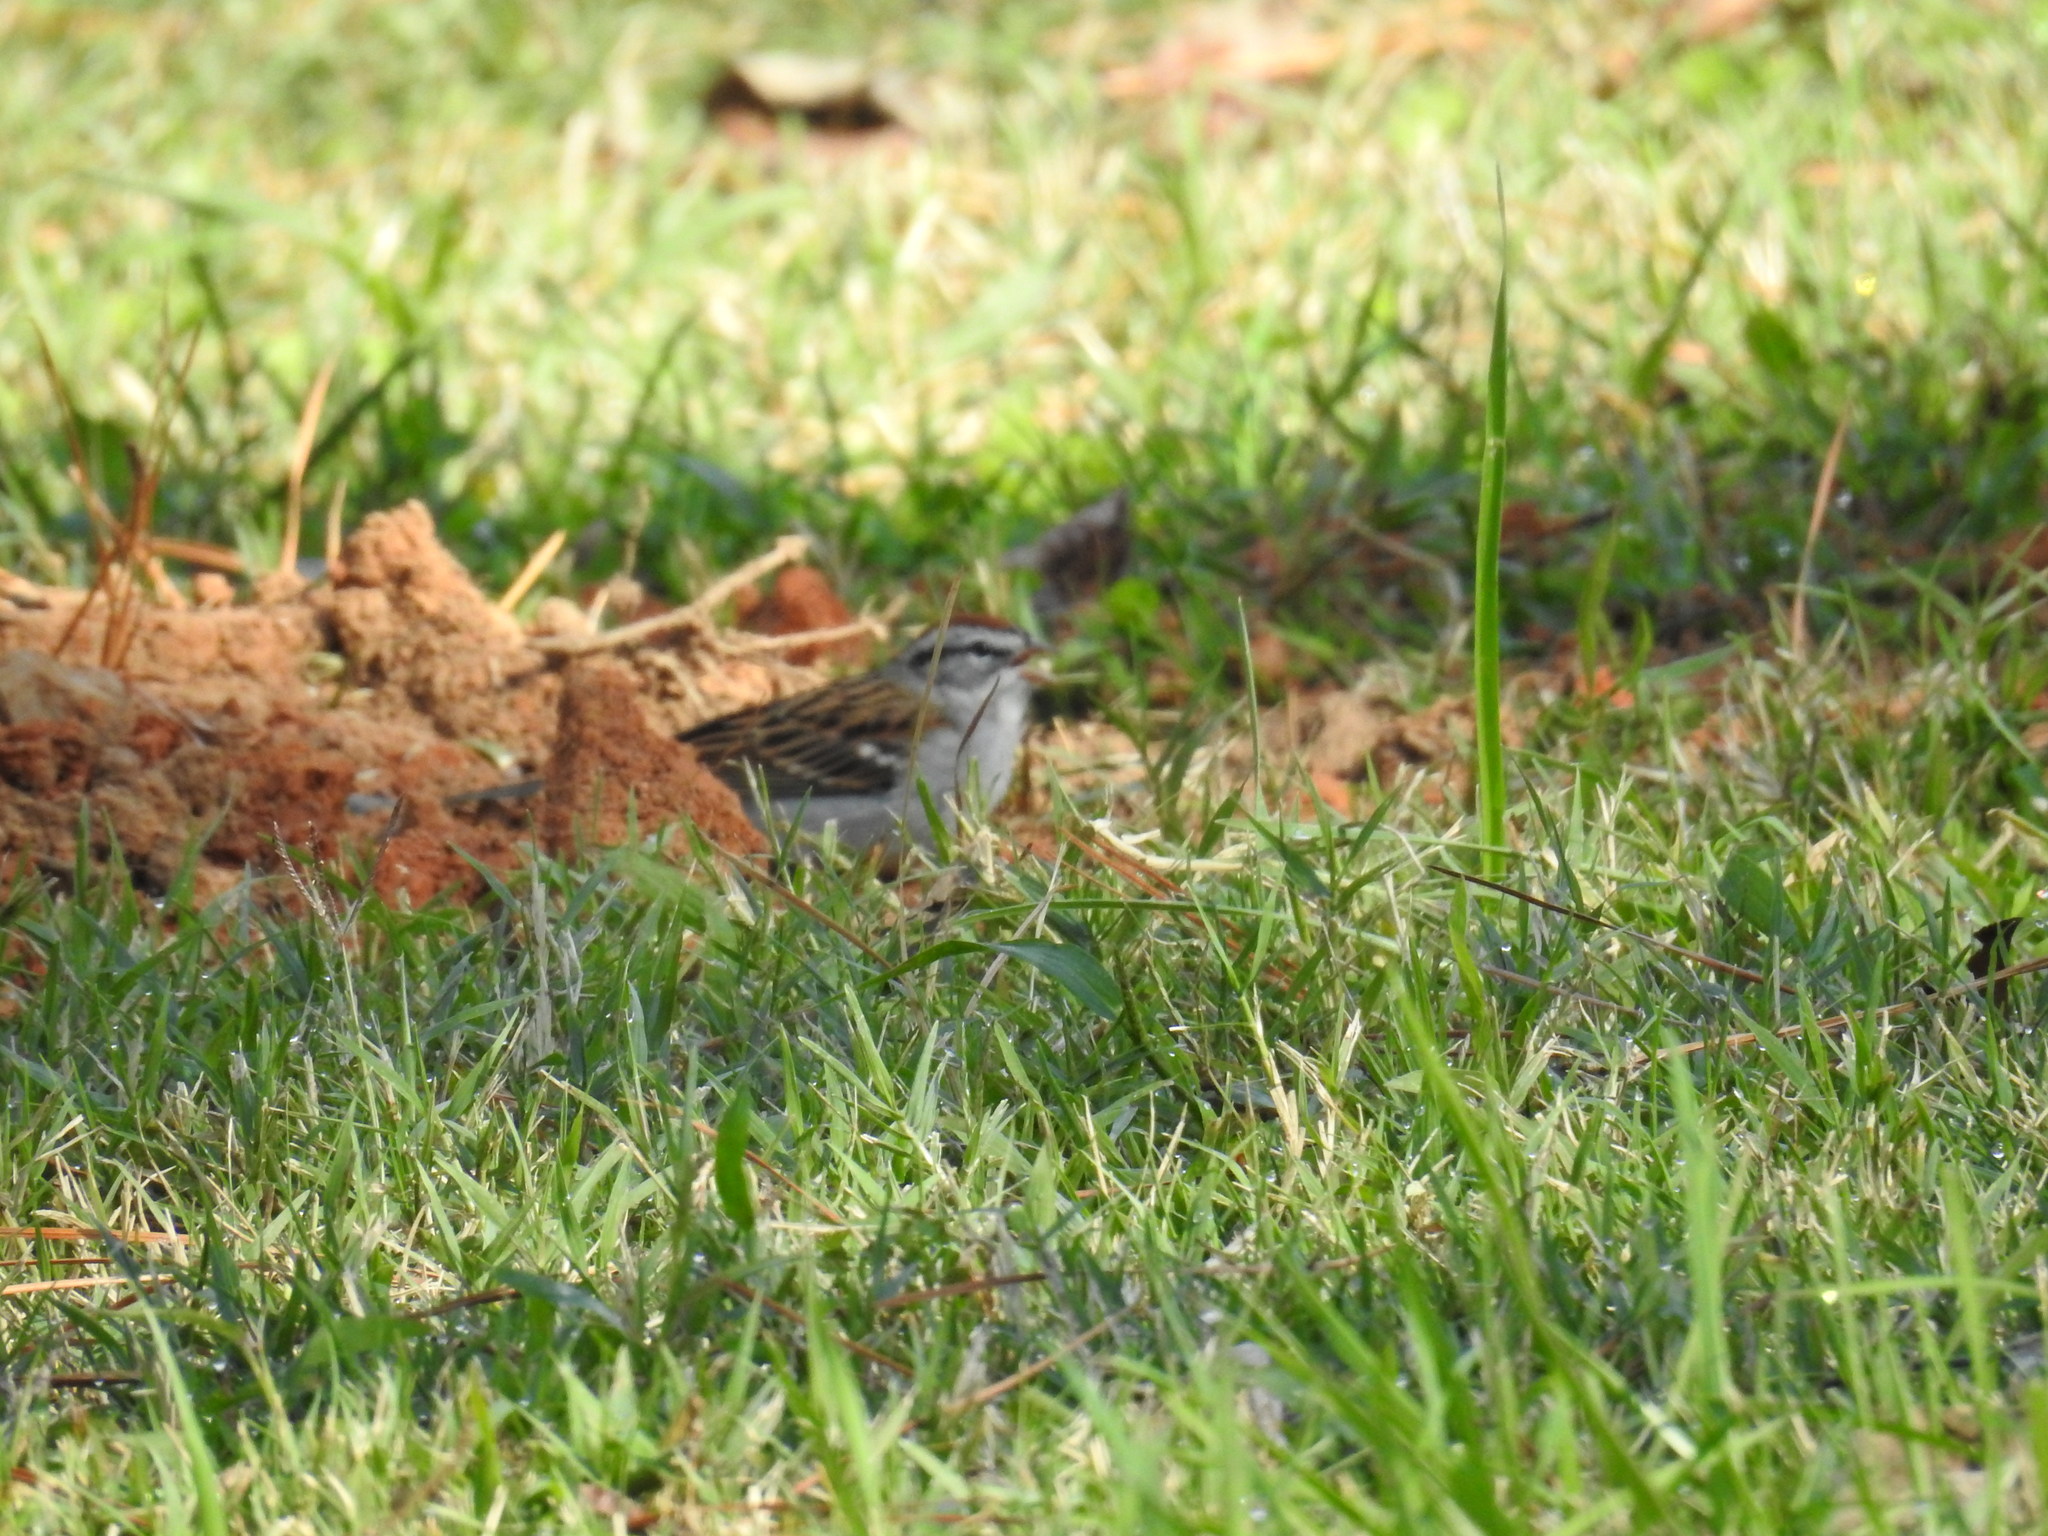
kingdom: Animalia
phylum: Chordata
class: Aves
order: Passeriformes
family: Passerellidae
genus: Spizella
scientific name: Spizella passerina
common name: Chipping sparrow
